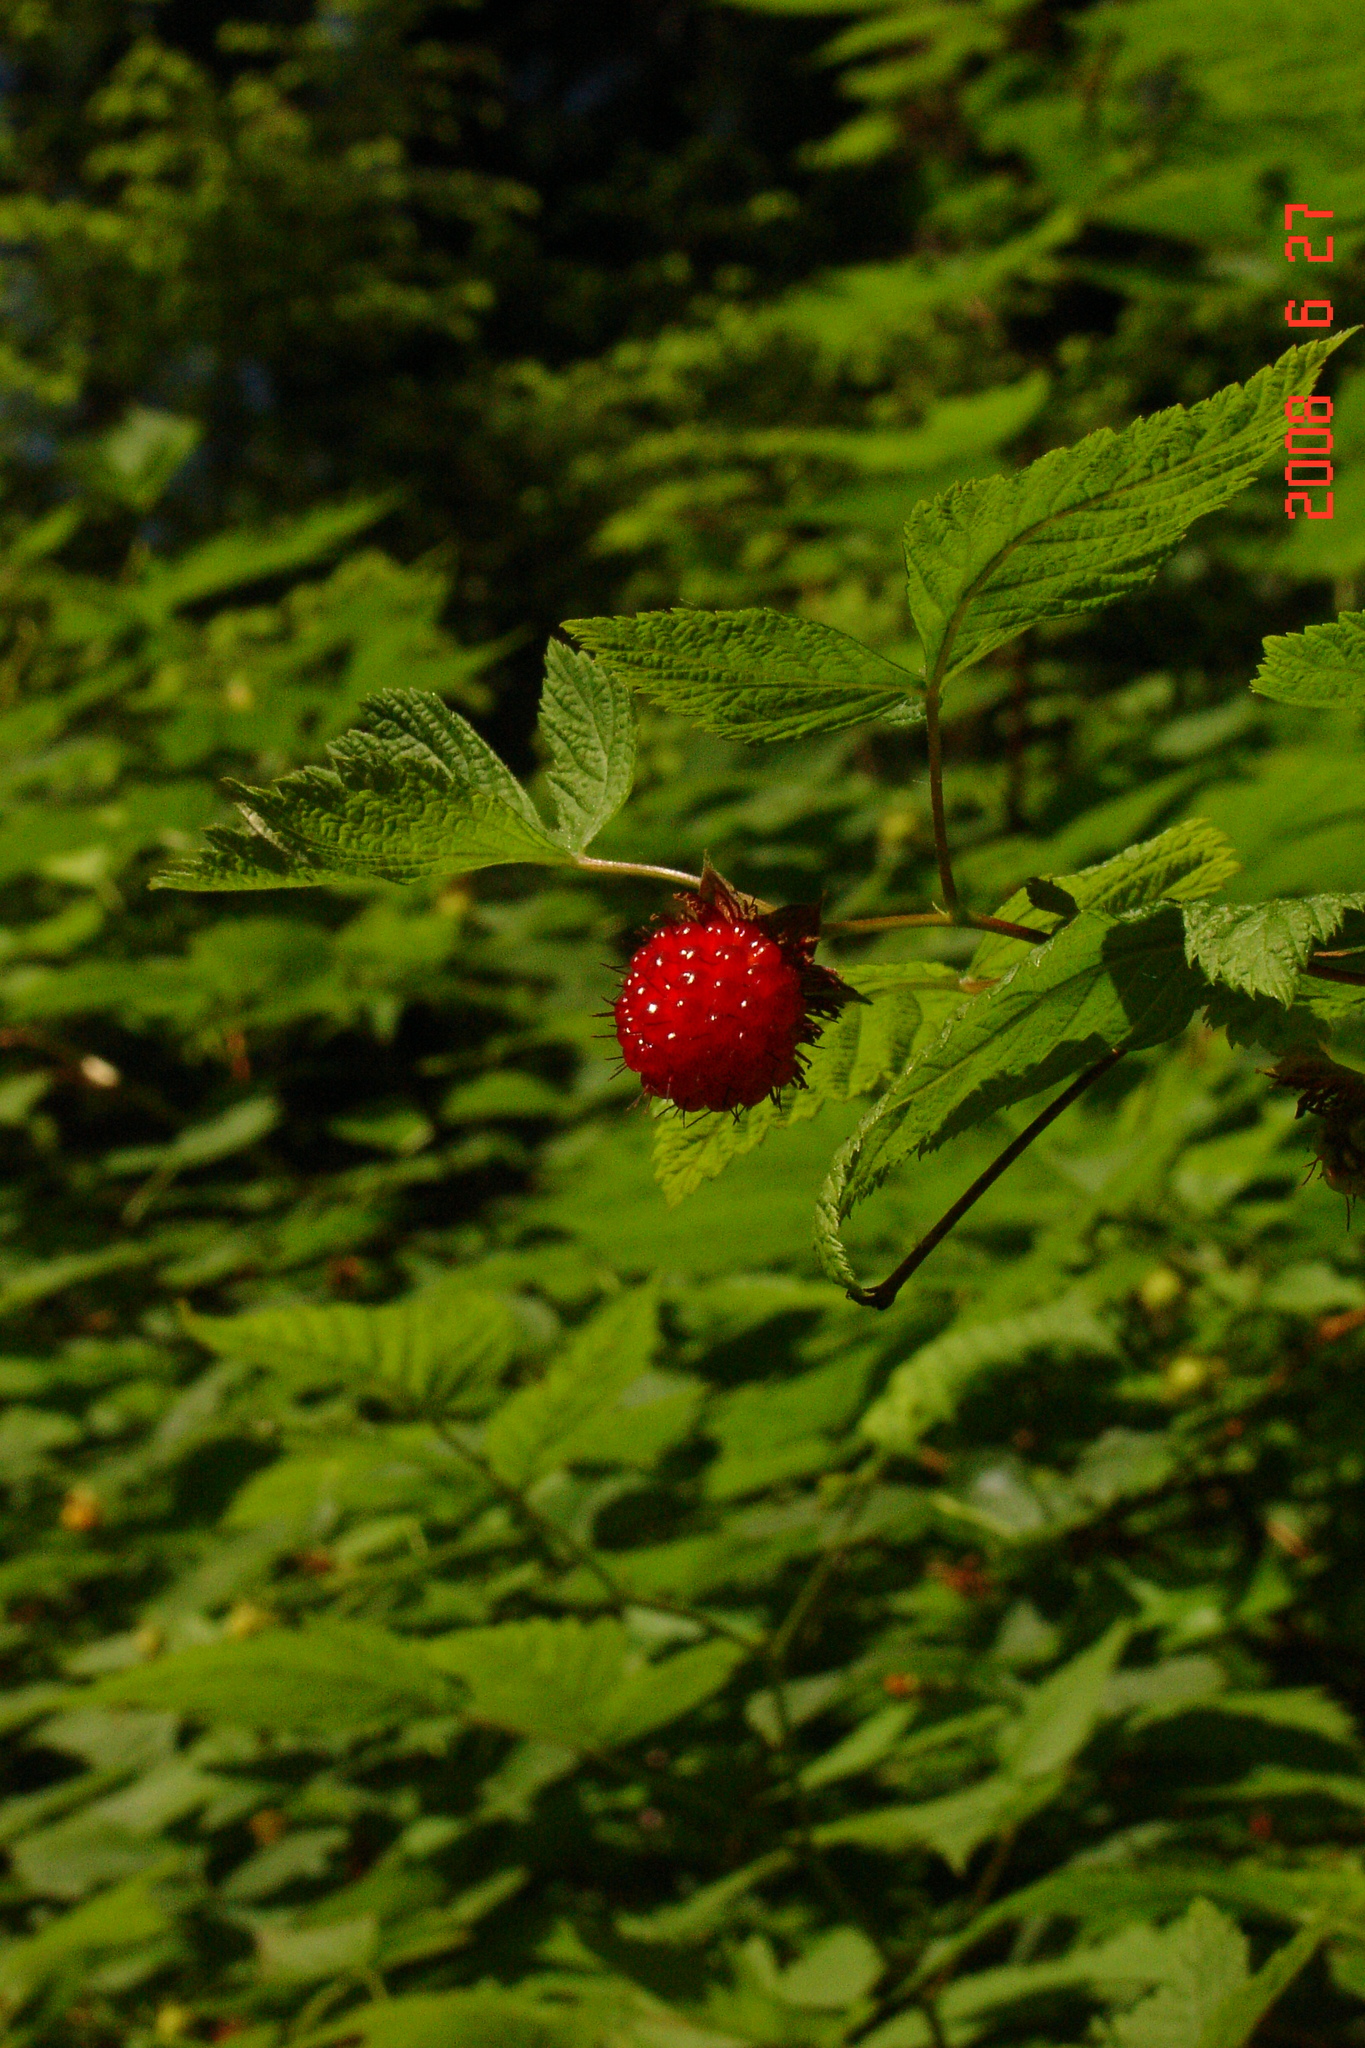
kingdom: Plantae
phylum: Tracheophyta
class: Magnoliopsida
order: Rosales
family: Rosaceae
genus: Rubus
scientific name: Rubus spectabilis
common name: Salmonberry
